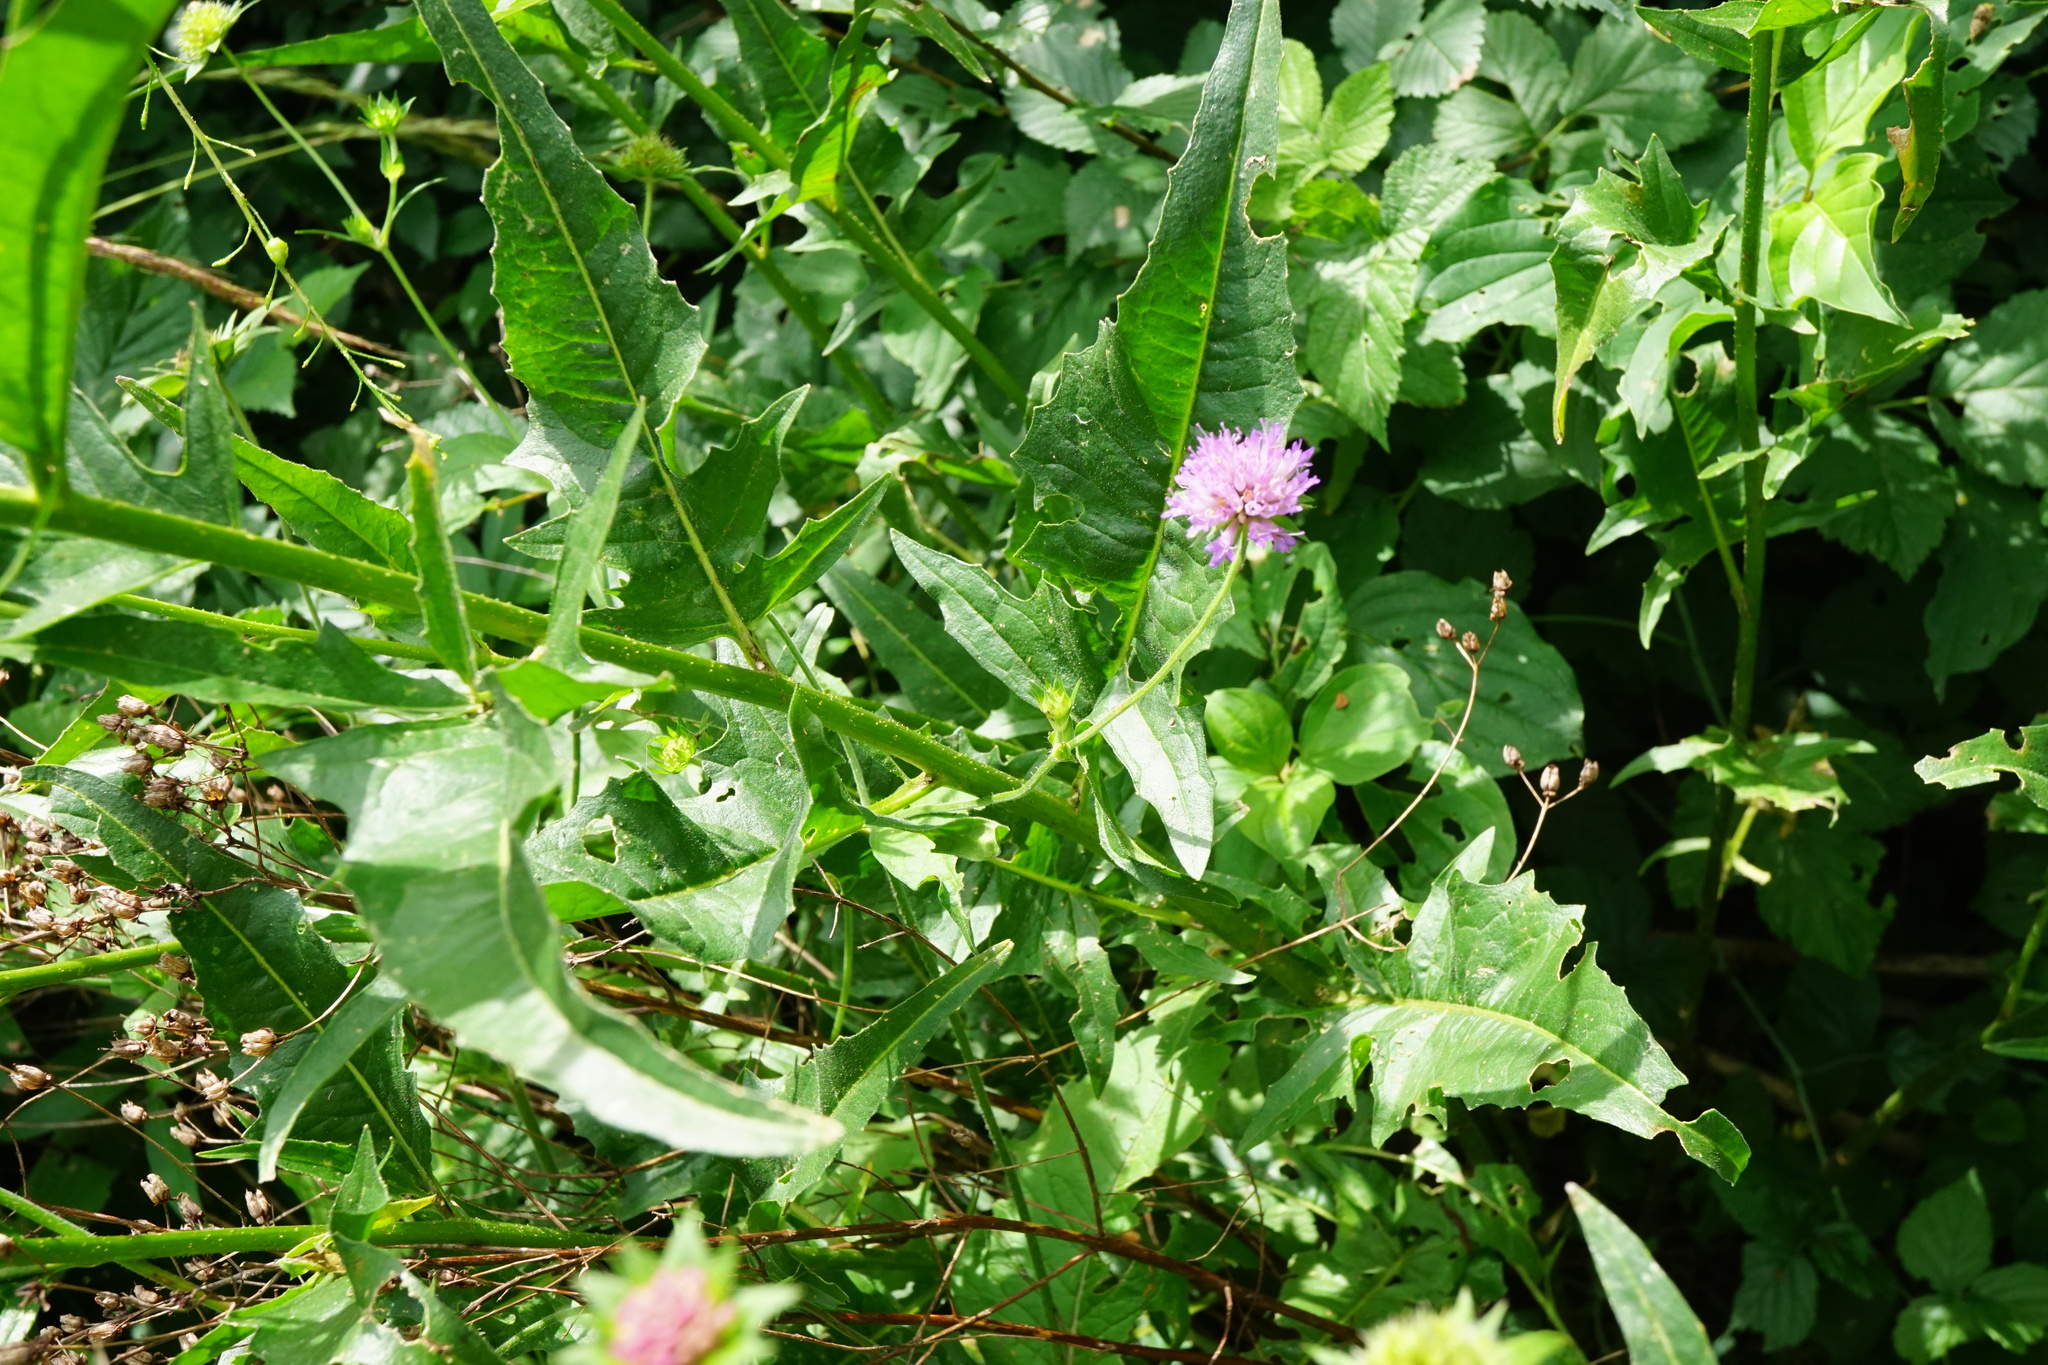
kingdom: Plantae
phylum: Tracheophyta
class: Magnoliopsida
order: Brassicales
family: Brassicaceae
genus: Bunias
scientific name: Bunias orientalis
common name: Warty-cabbage
